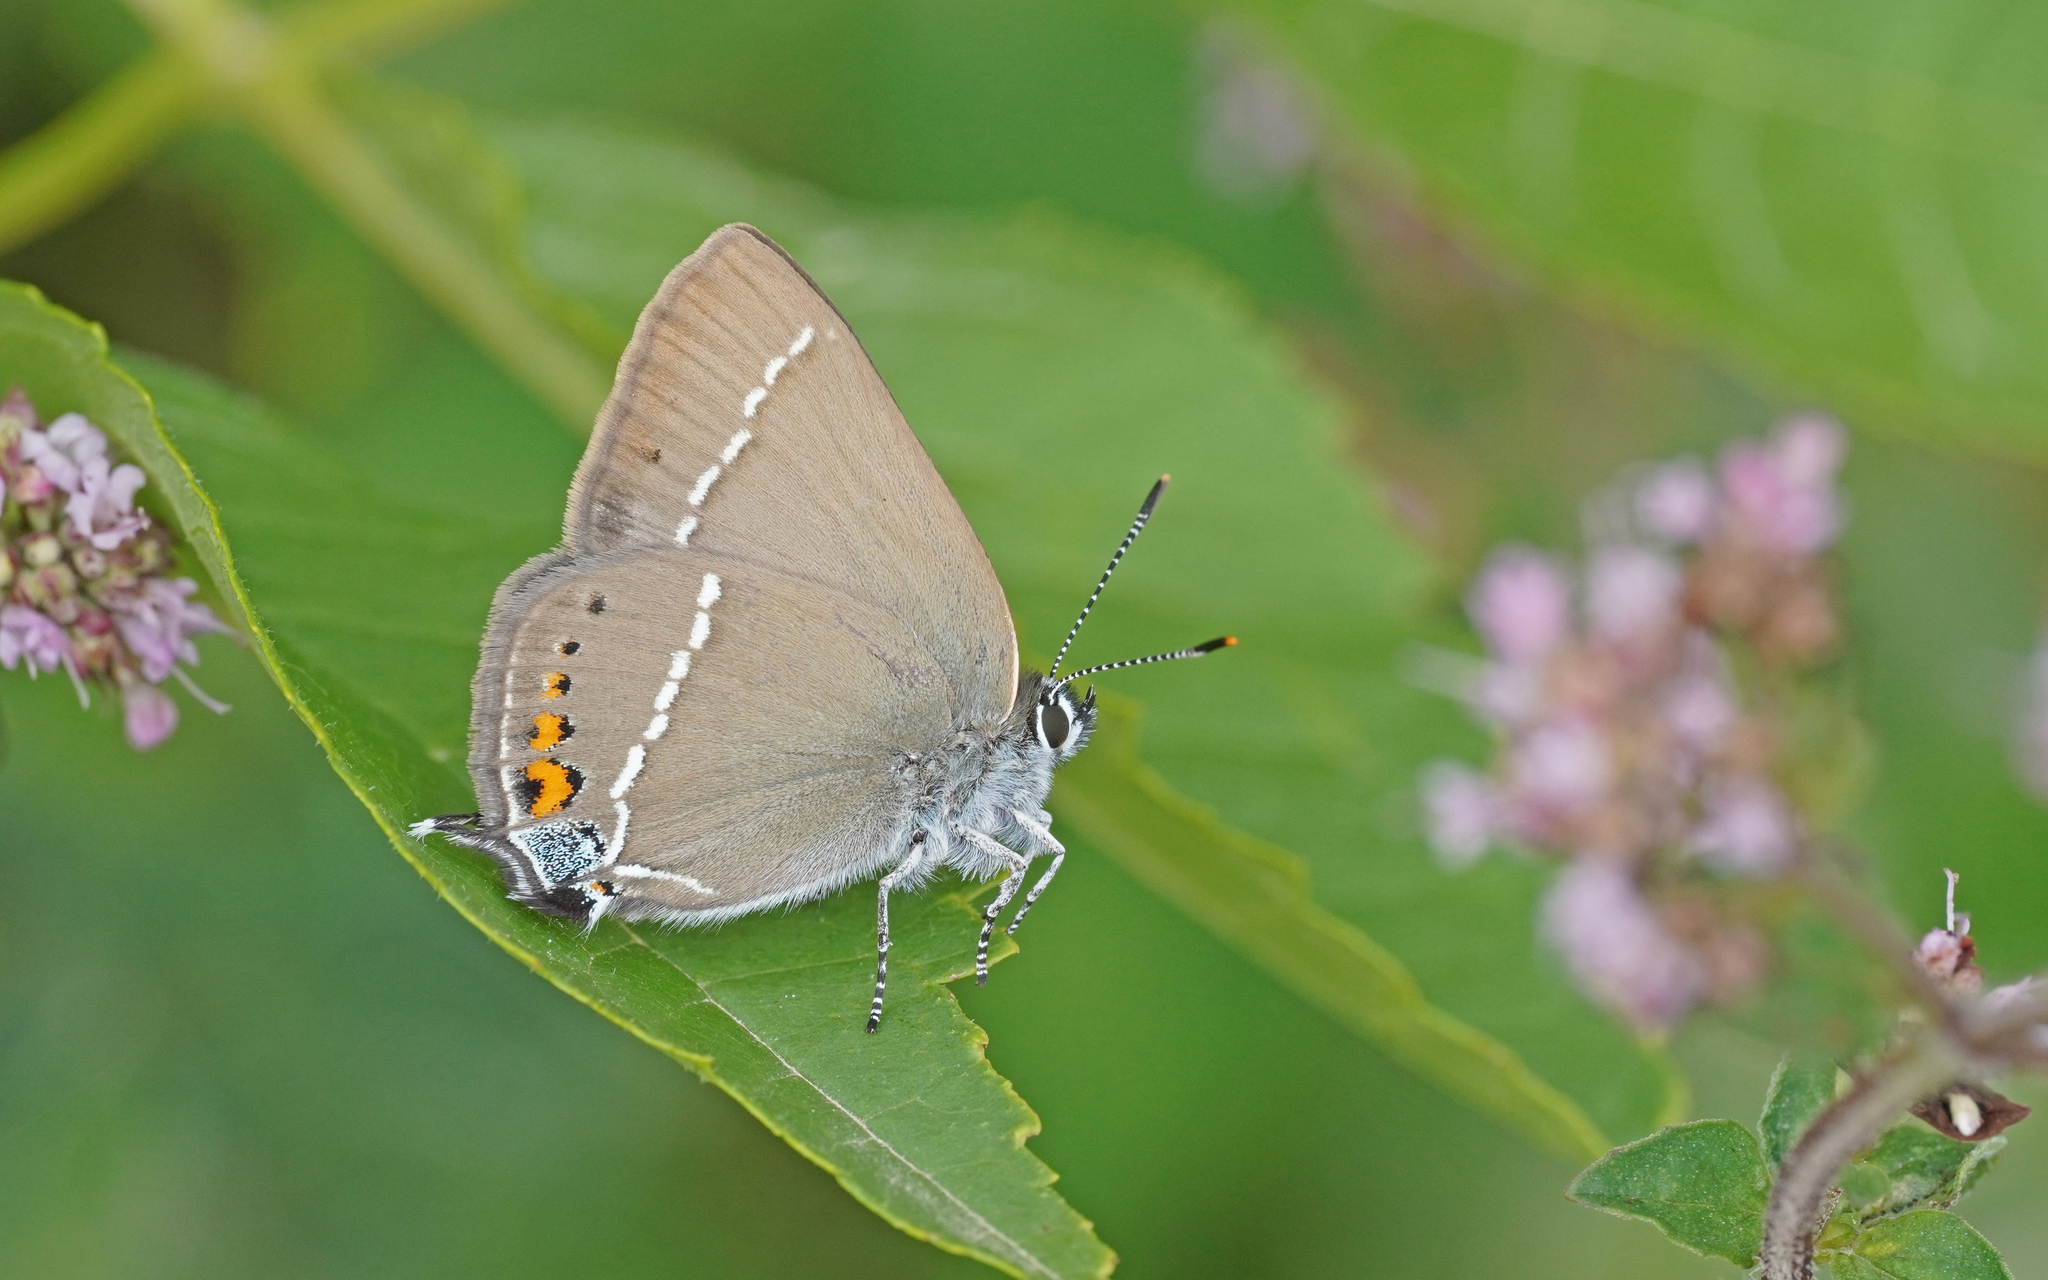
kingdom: Animalia
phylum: Arthropoda
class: Insecta
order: Lepidoptera
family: Lycaenidae
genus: Tuttiola
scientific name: Tuttiola spini
